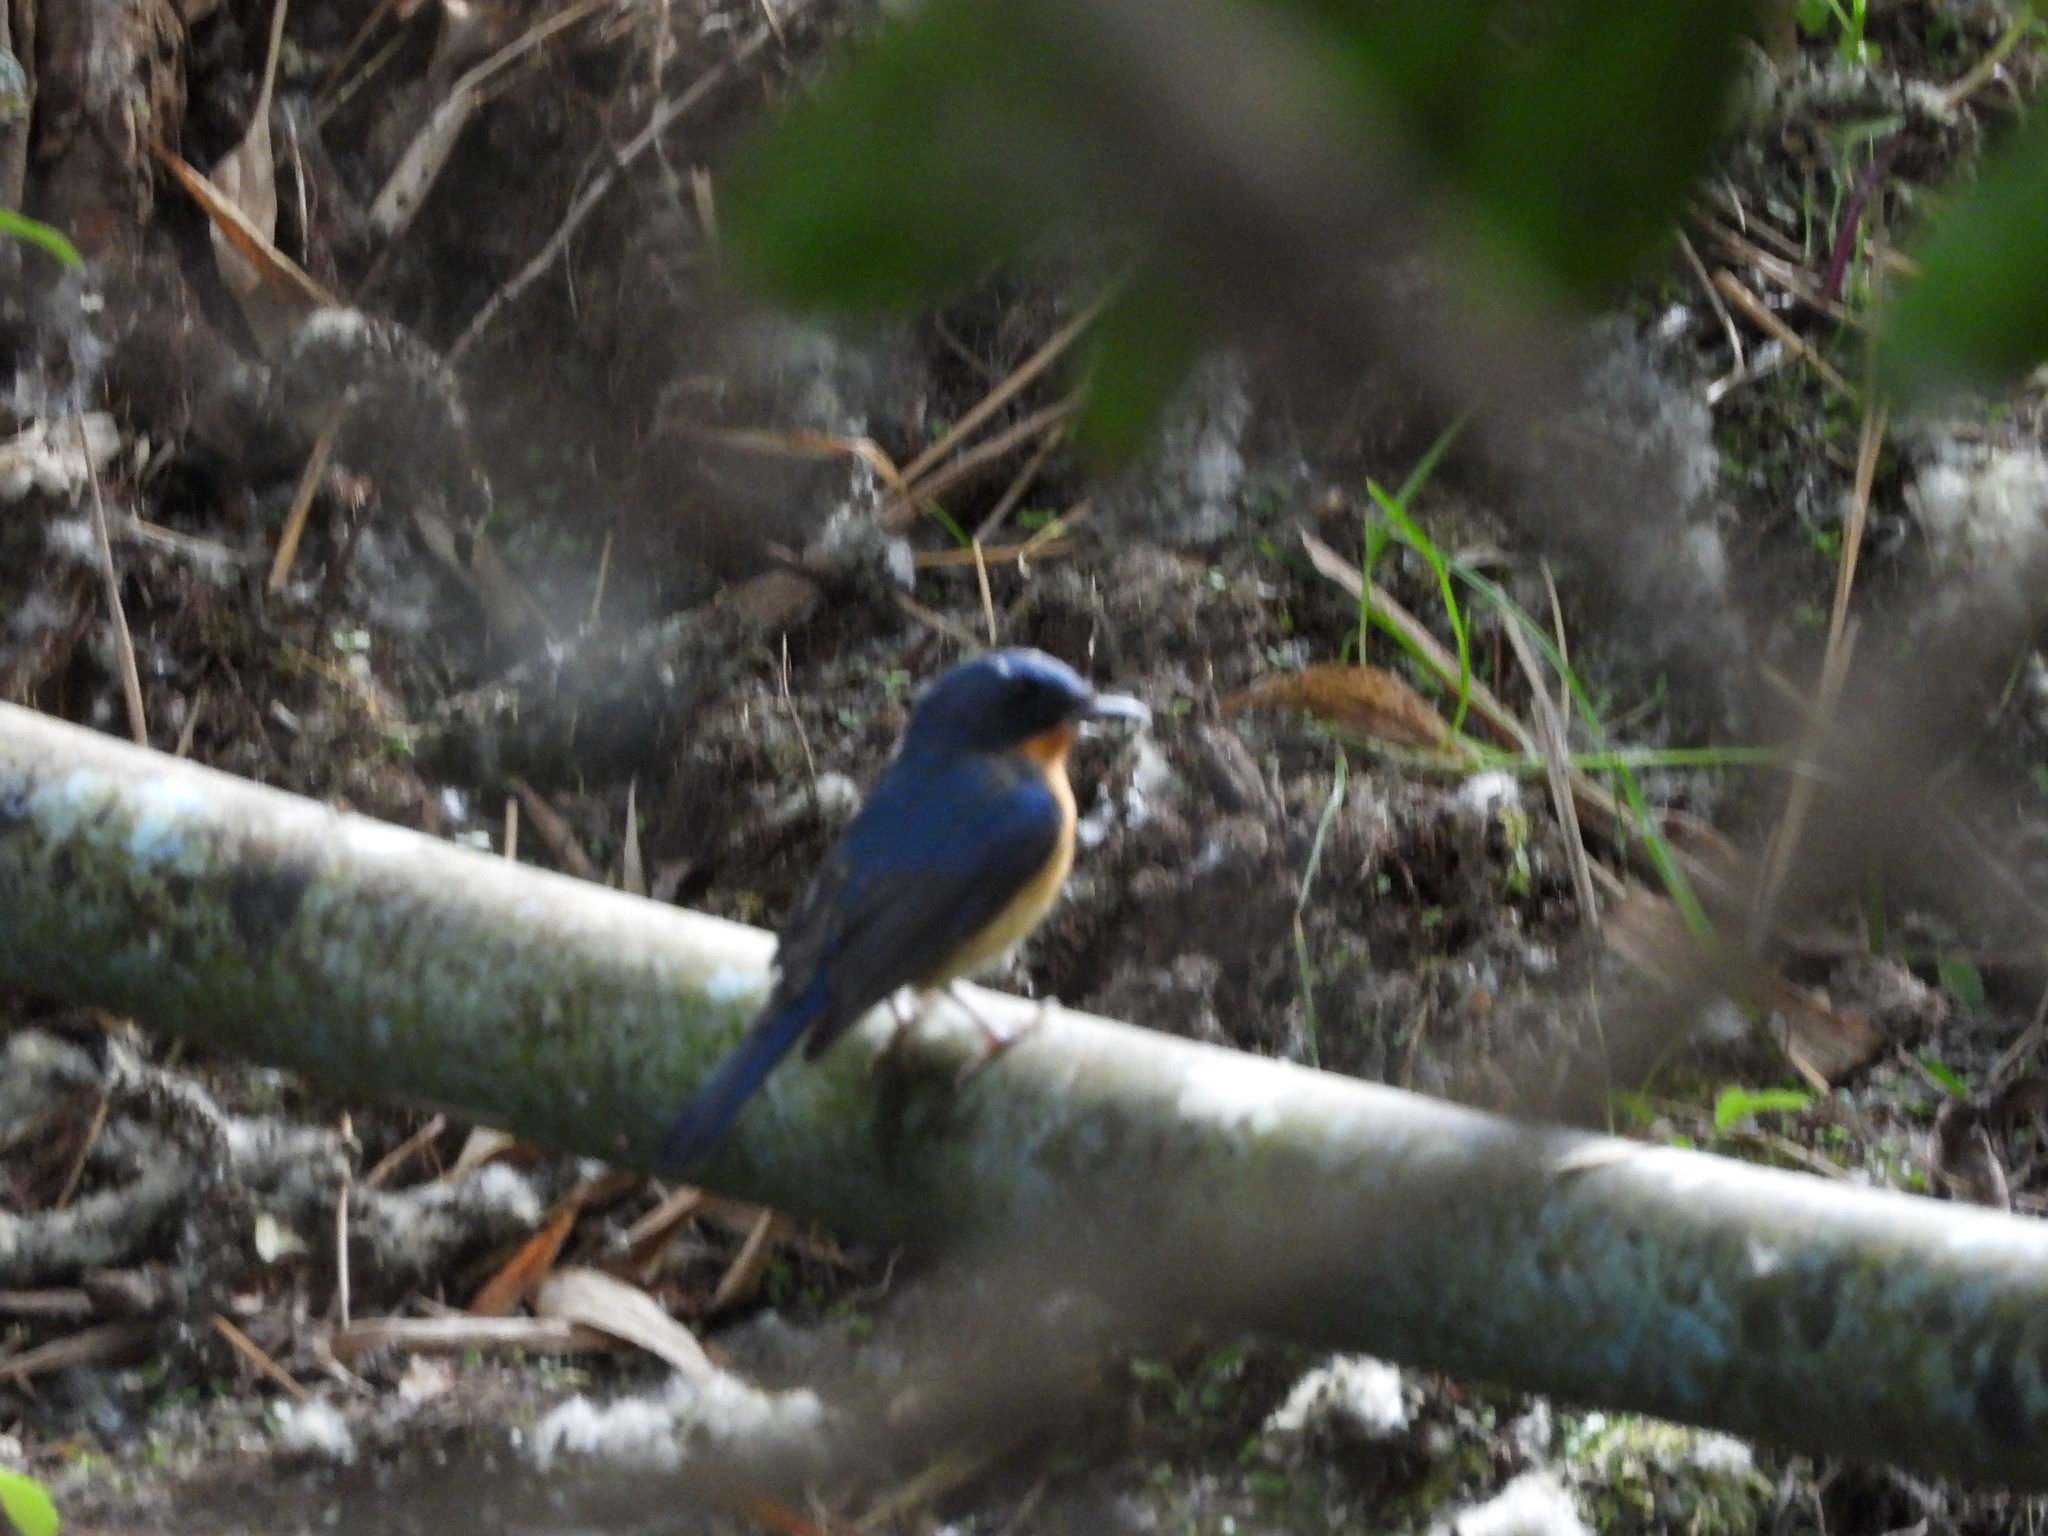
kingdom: Animalia
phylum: Chordata
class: Aves
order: Passeriformes
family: Muscicapidae
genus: Cyornis
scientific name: Cyornis whitei
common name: Hill blue flycatcher
